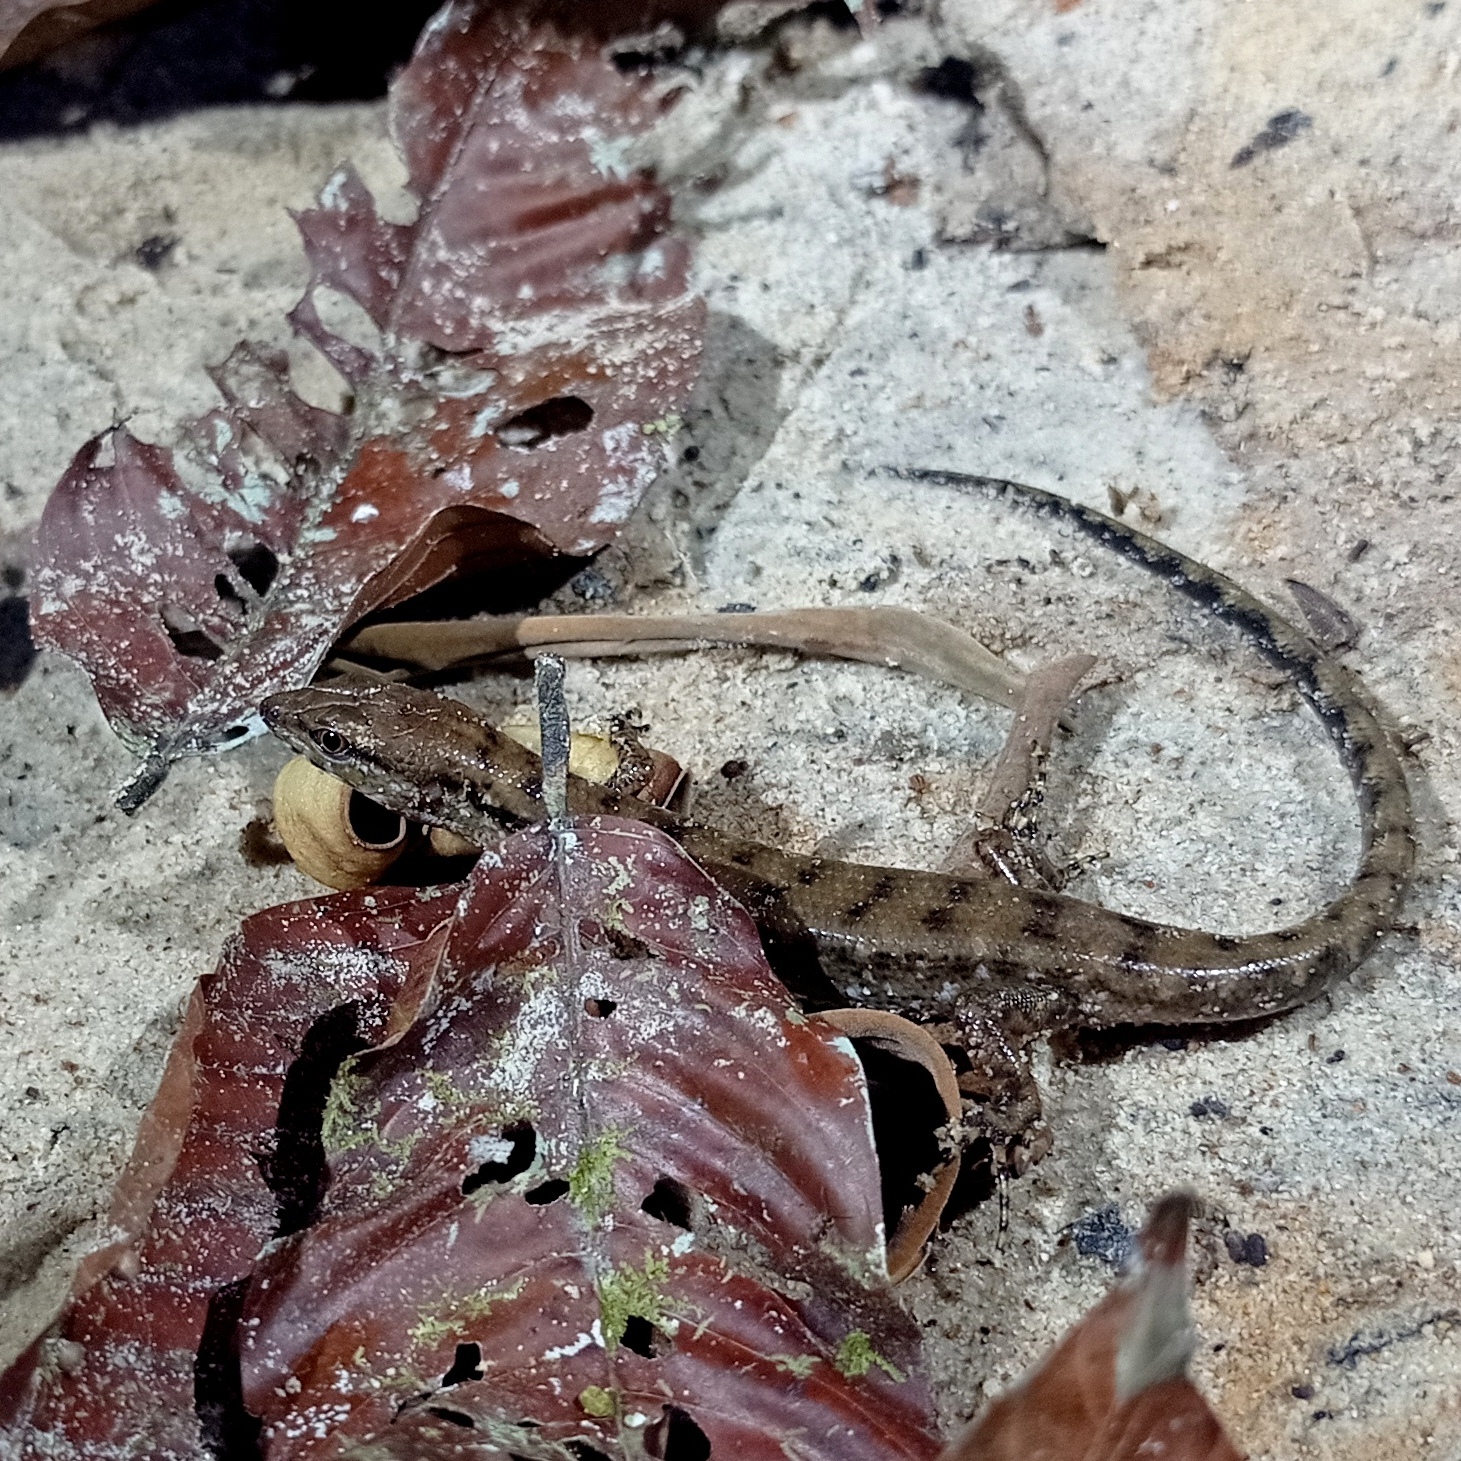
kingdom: Animalia
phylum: Chordata
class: Squamata
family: Scincidae
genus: Tropidophorus
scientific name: Tropidophorus beccarii
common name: Beccari's keeled skink
